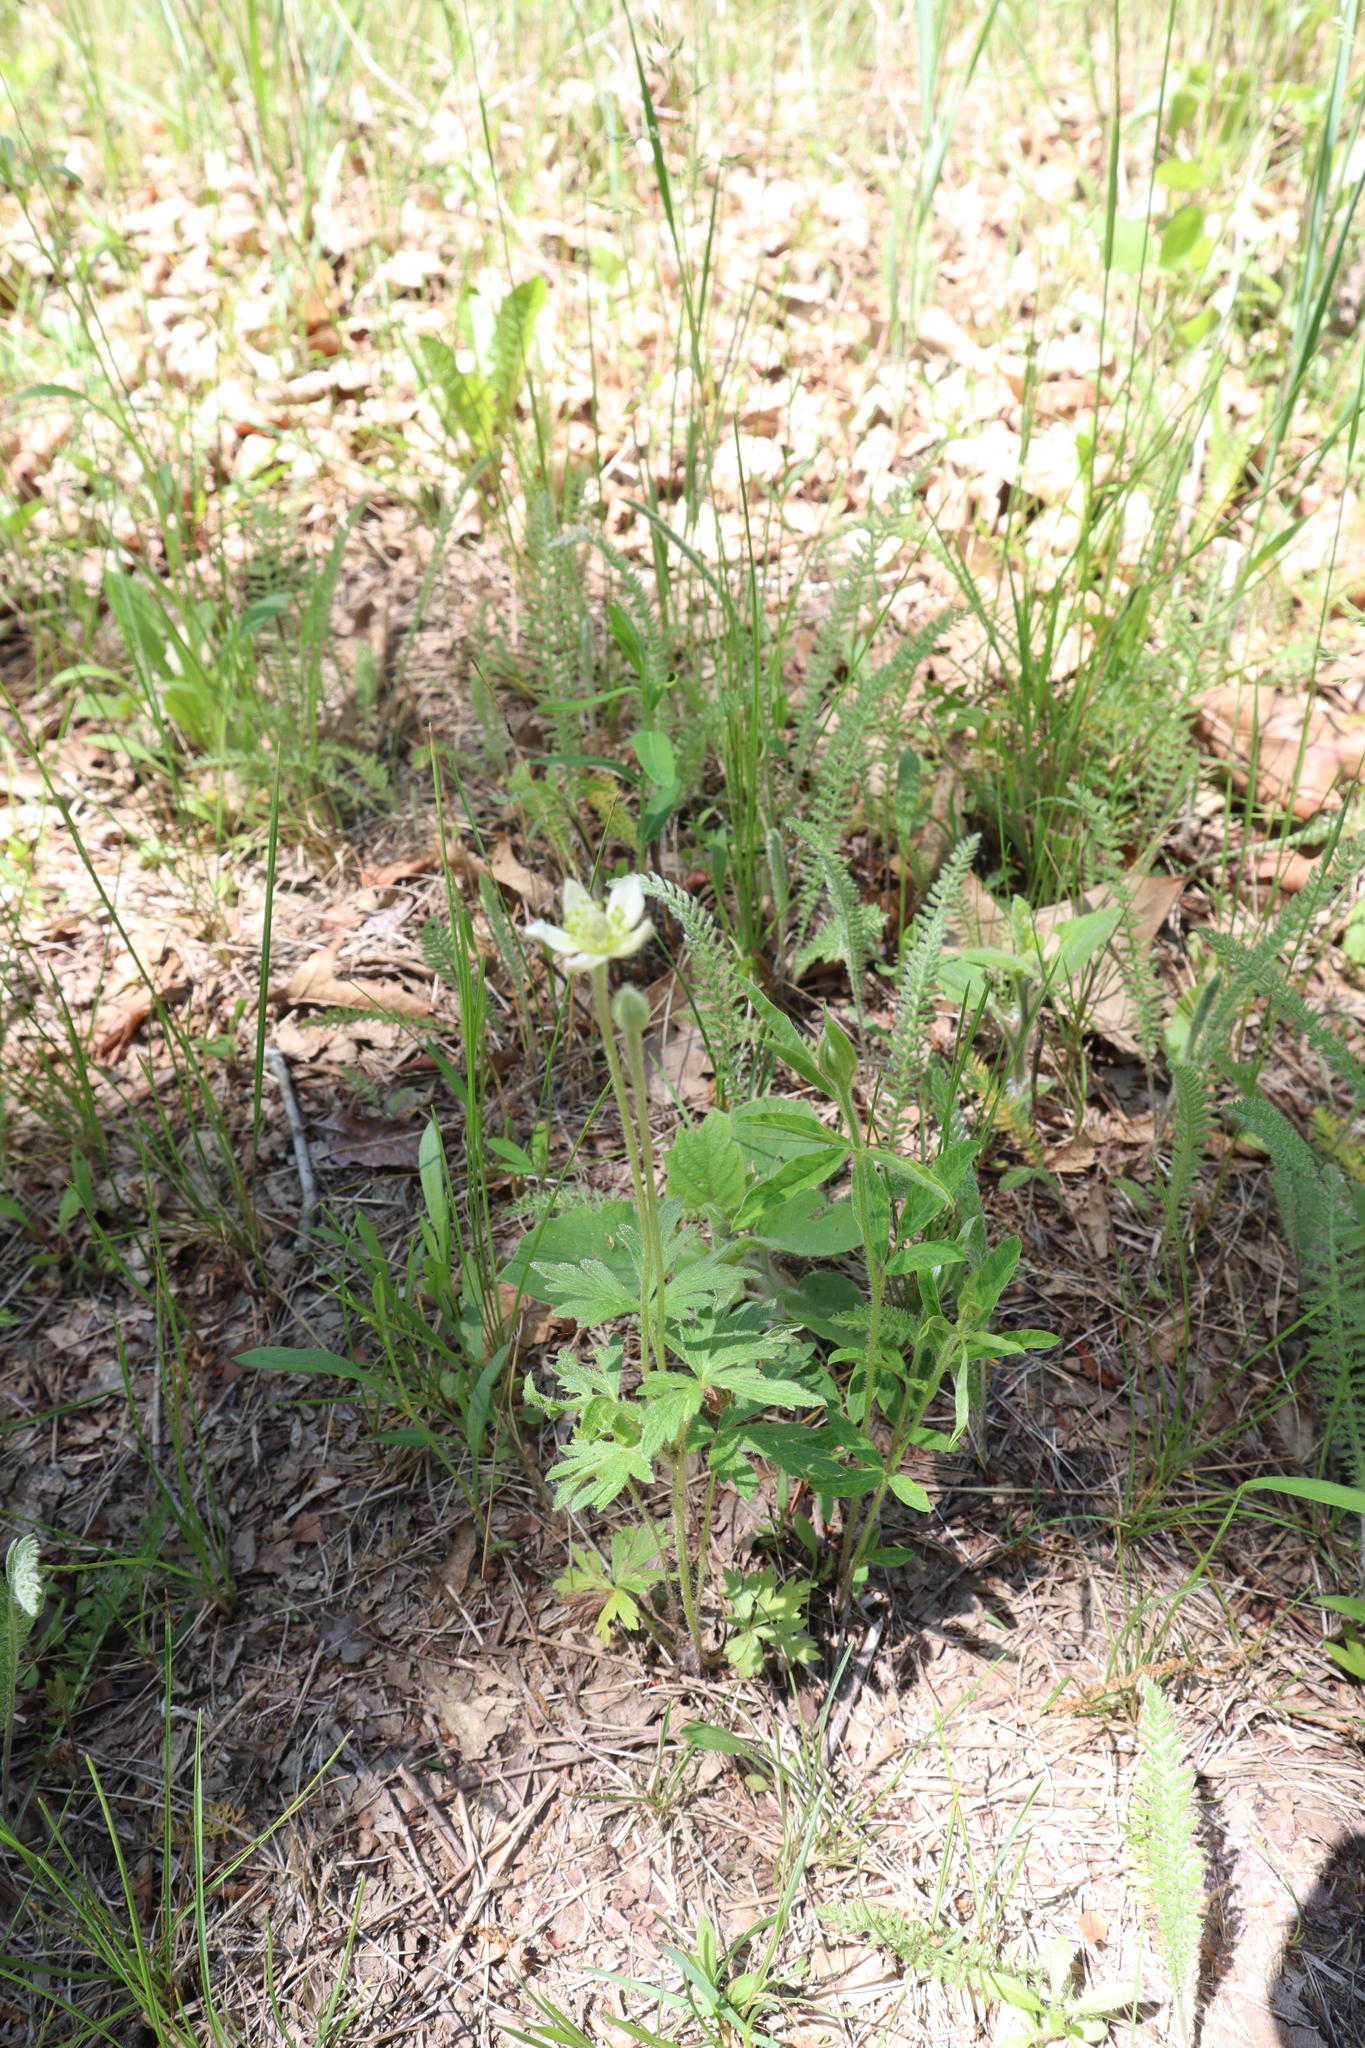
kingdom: Plantae
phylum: Tracheophyta
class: Magnoliopsida
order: Ranunculales
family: Ranunculaceae
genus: Anemone
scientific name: Anemone cylindrica
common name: Candle anemone
